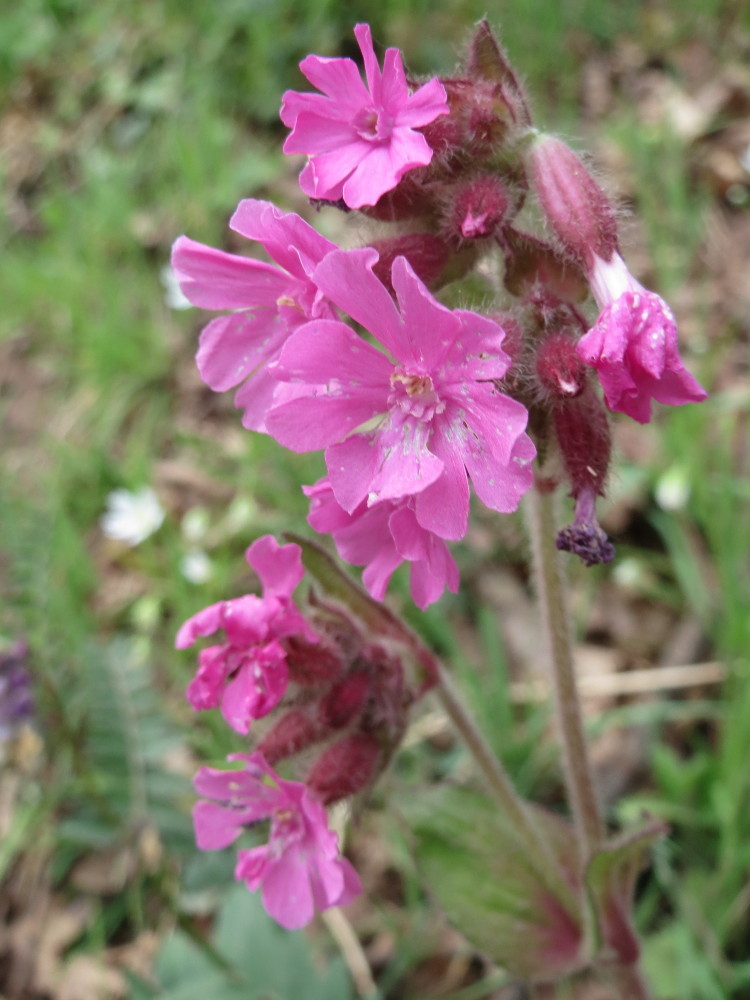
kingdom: Plantae
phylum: Tracheophyta
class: Magnoliopsida
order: Caryophyllales
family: Caryophyllaceae
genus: Silene
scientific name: Silene dioica
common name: Red campion
